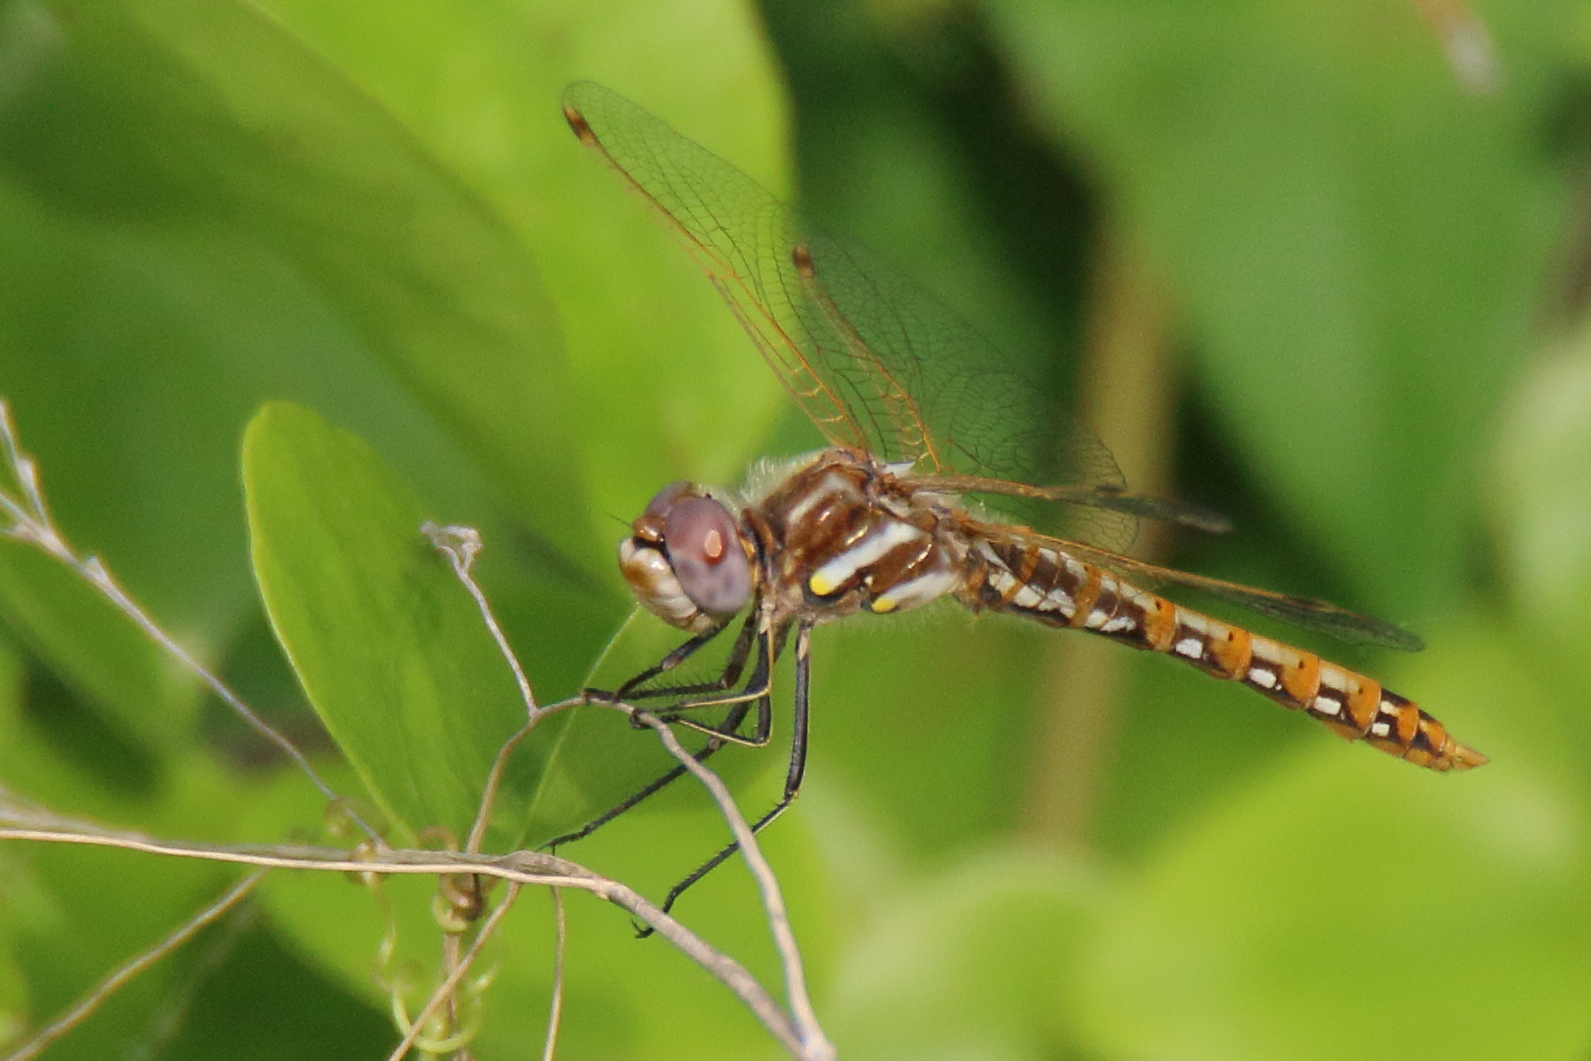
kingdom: Animalia
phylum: Arthropoda
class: Insecta
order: Odonata
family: Libellulidae
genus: Sympetrum
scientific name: Sympetrum corruptum
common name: Variegated meadowhawk
